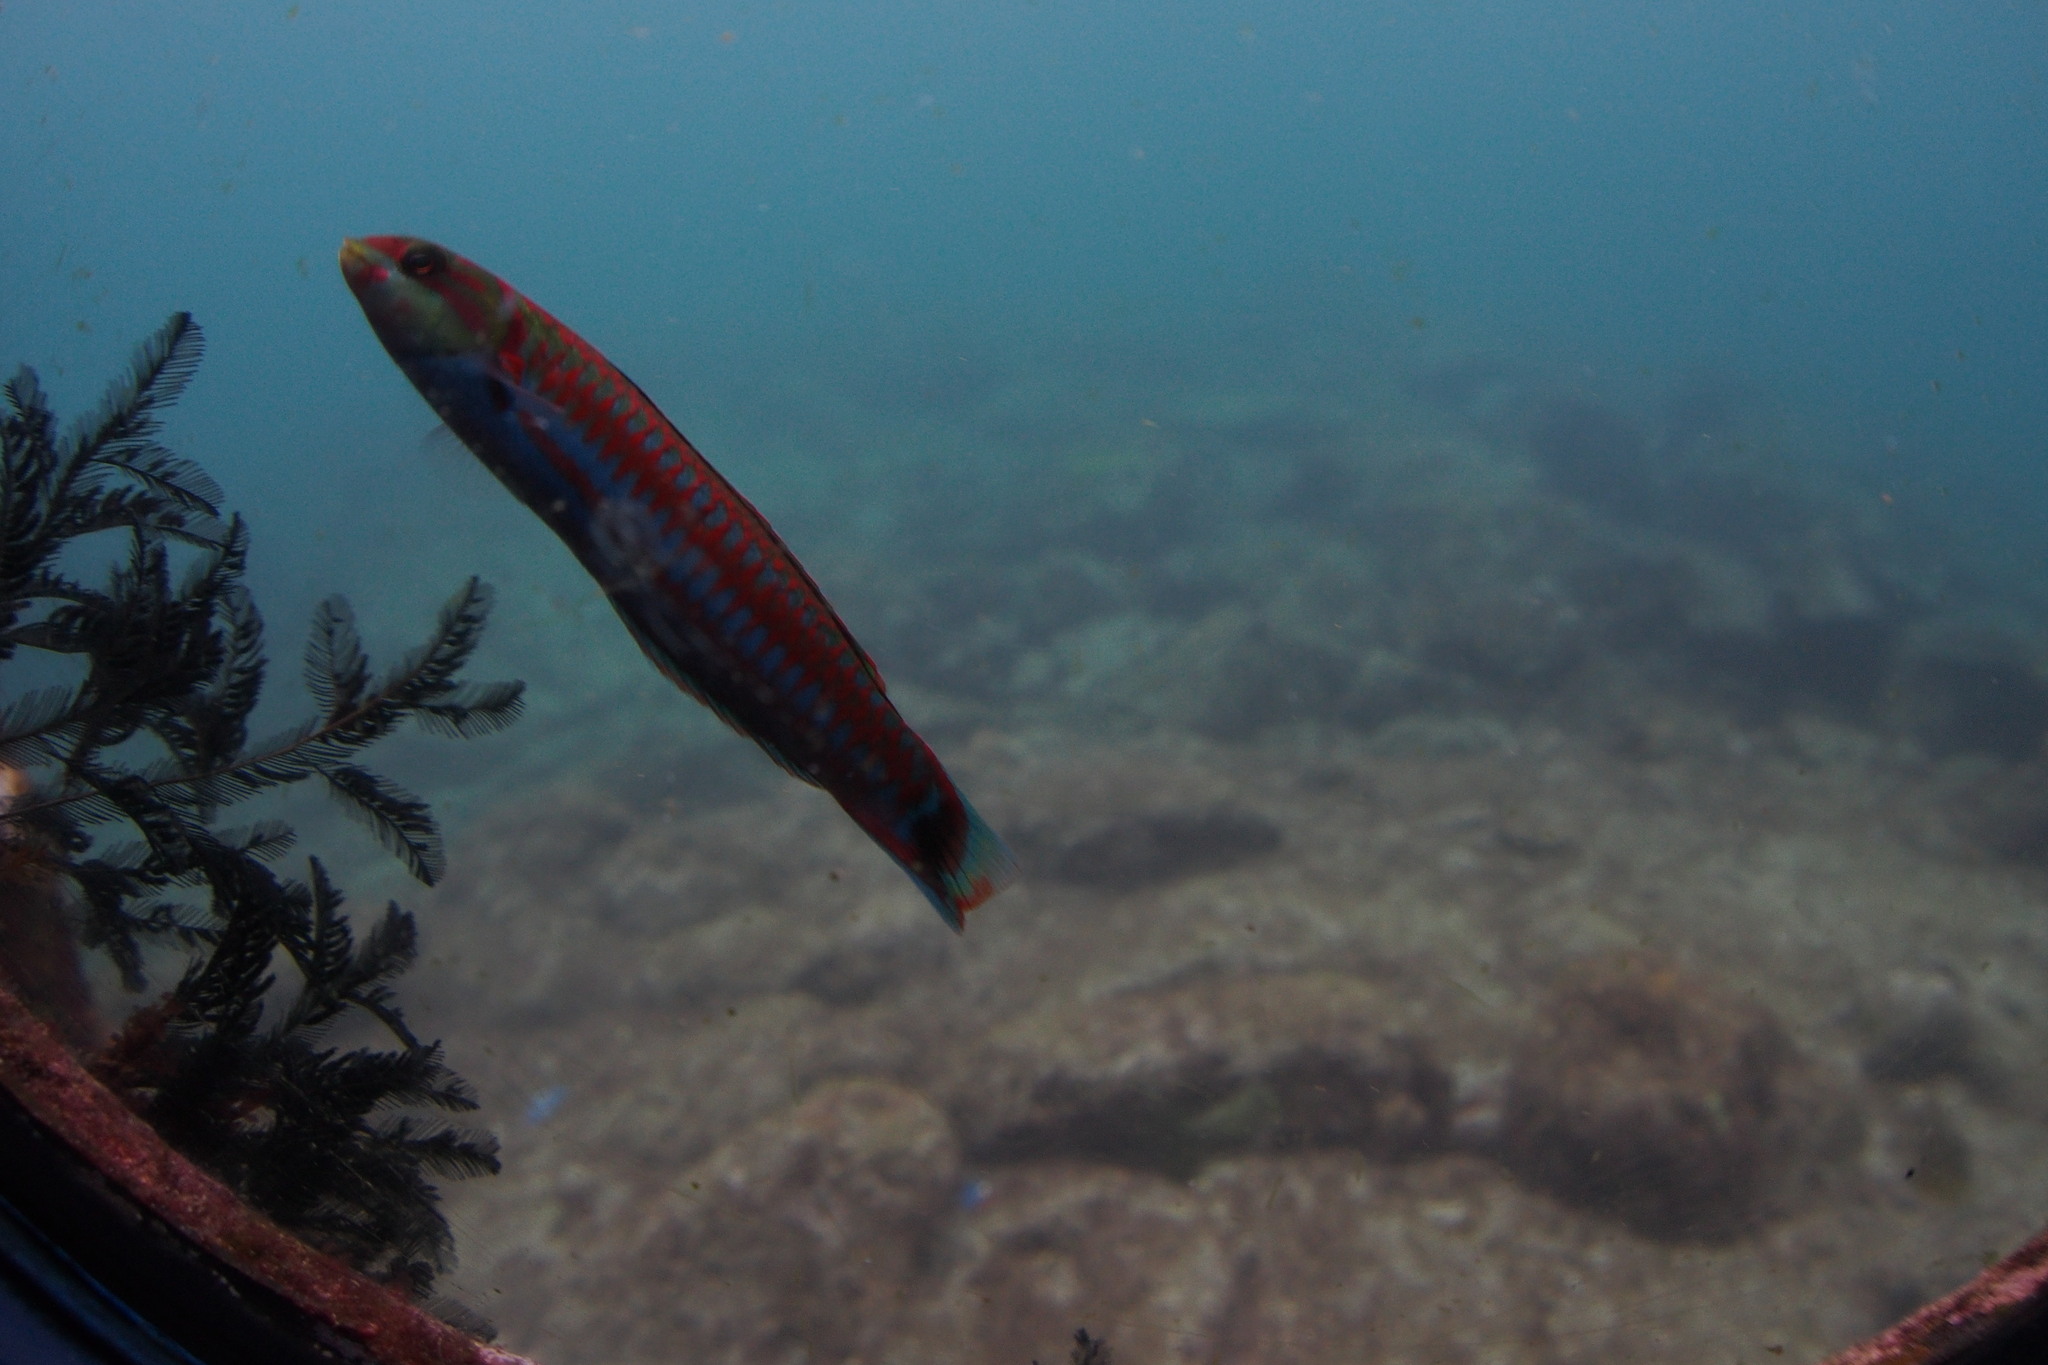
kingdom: Animalia
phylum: Chordata
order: Perciformes
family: Labridae
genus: Thalassoma
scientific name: Thalassoma cupido
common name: Cupid wrasse
